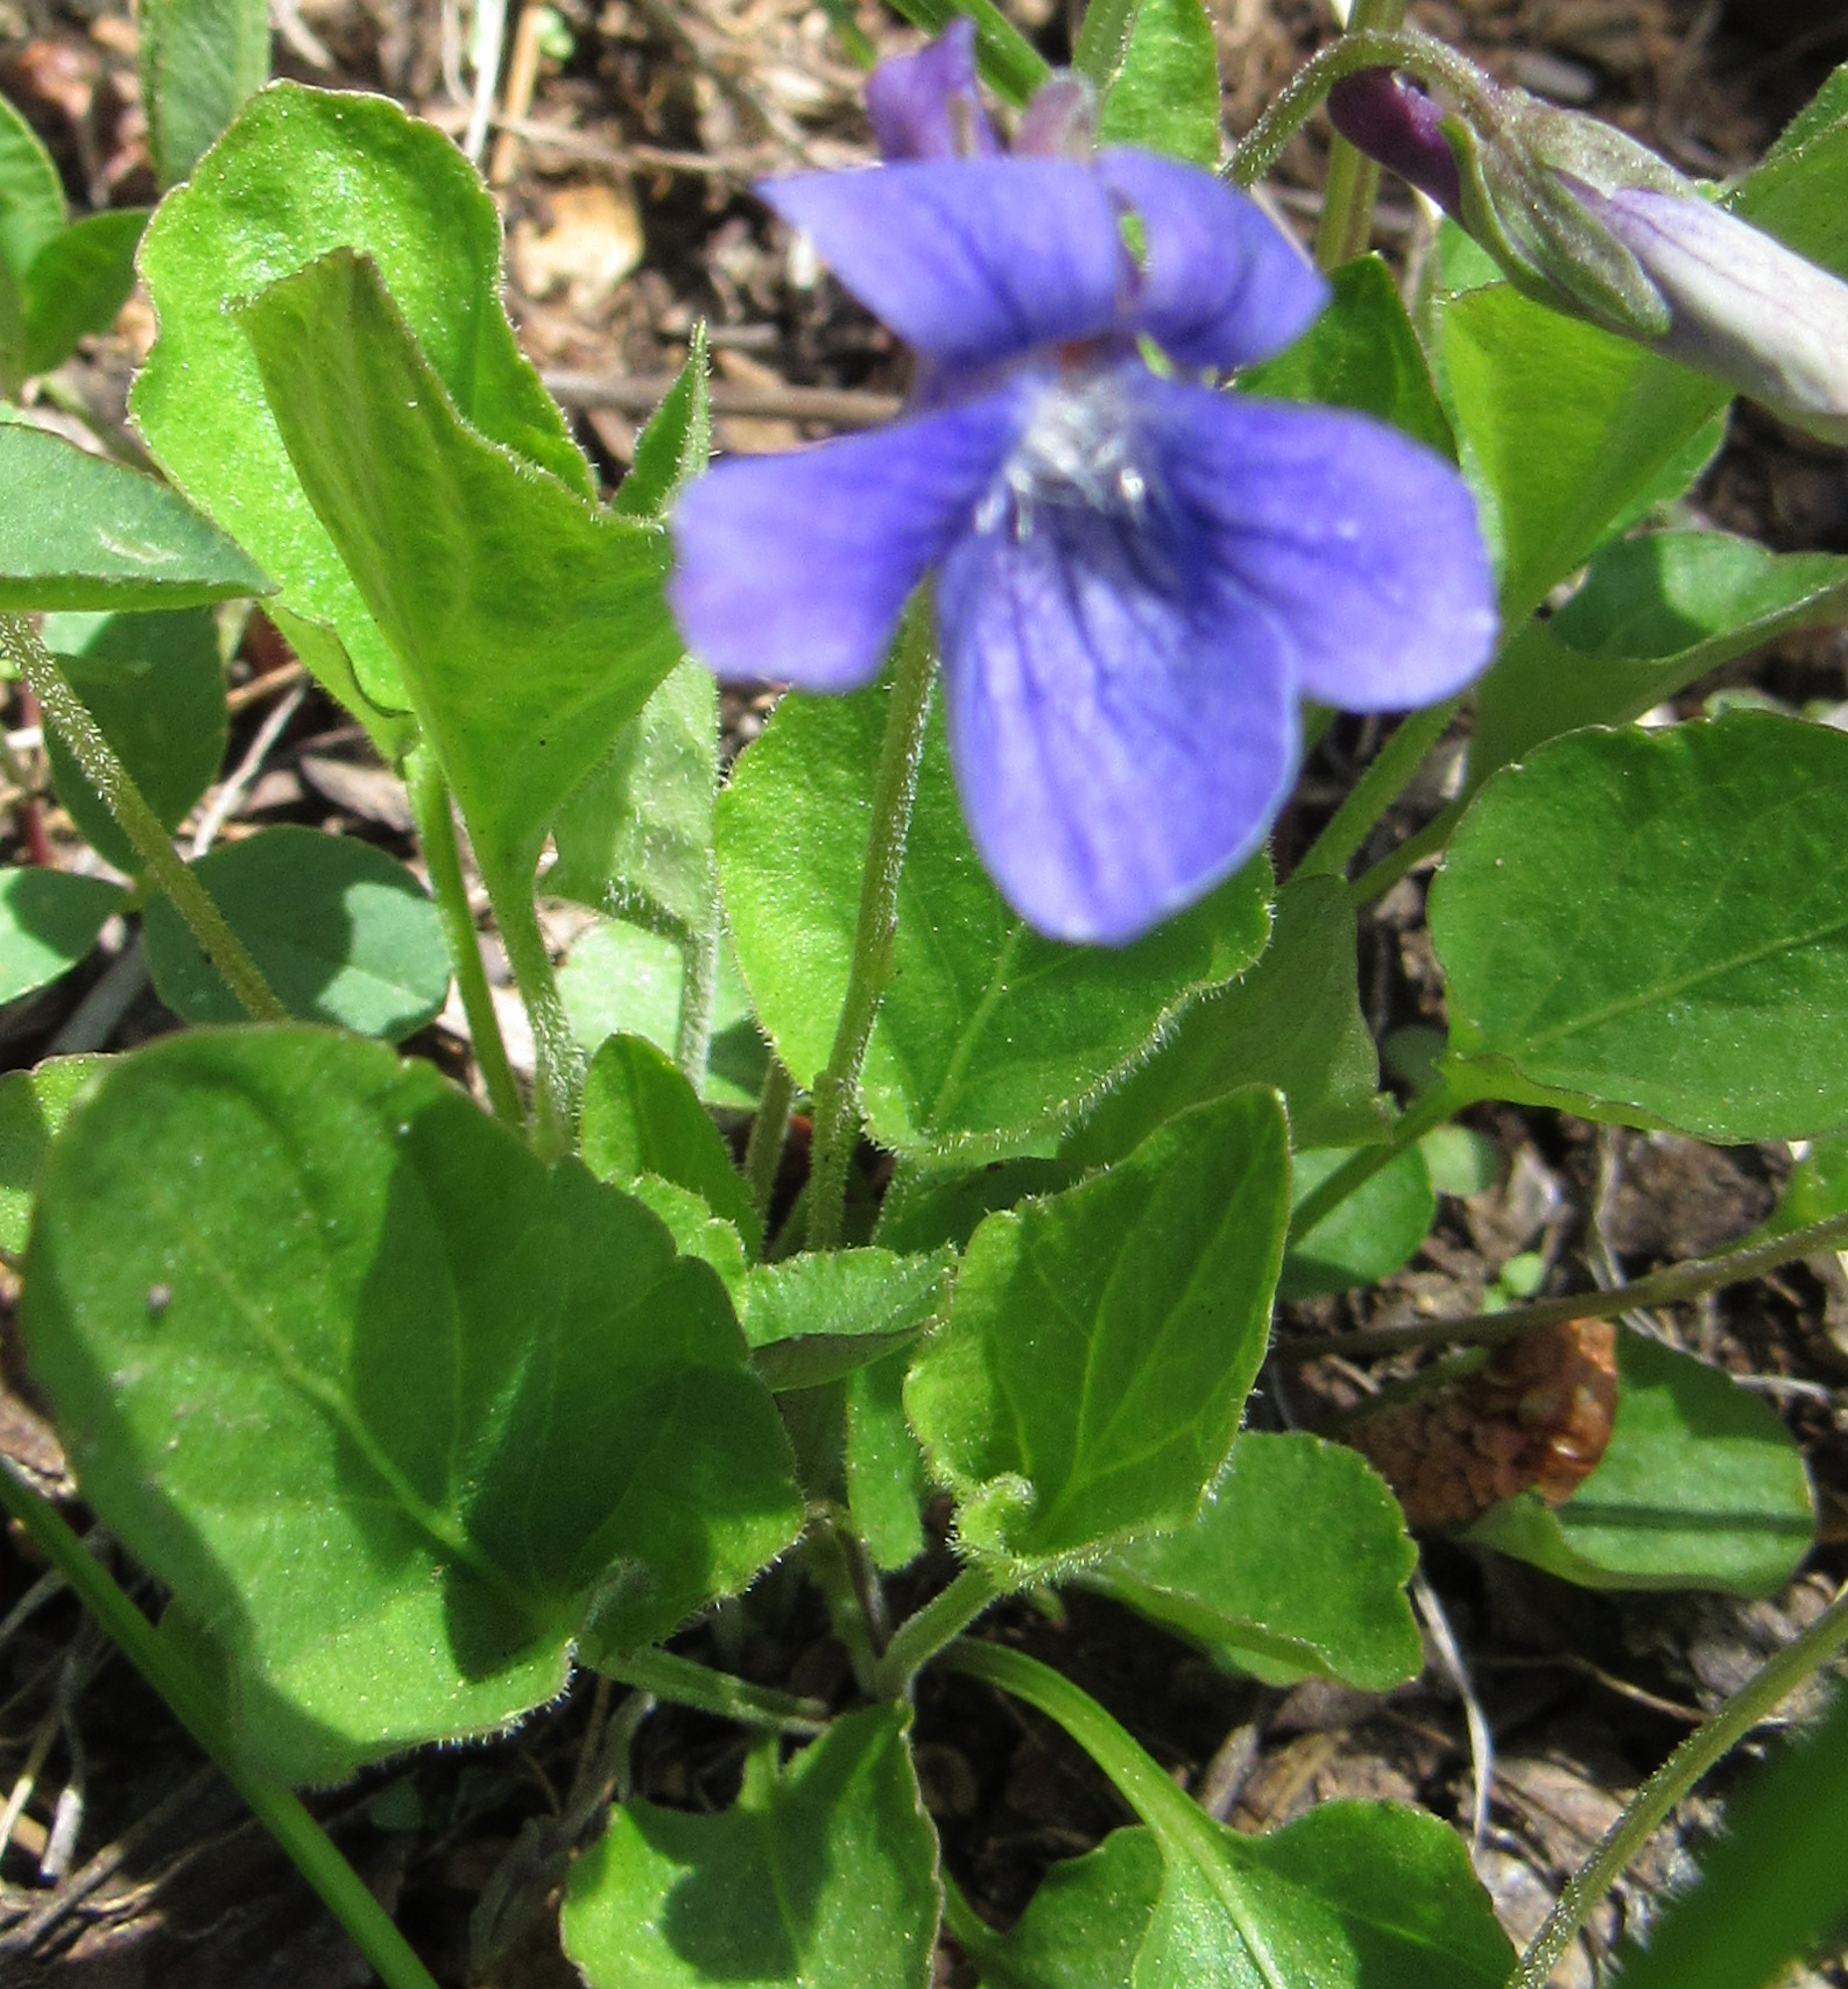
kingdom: Plantae
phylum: Tracheophyta
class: Magnoliopsida
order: Malpighiales
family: Violaceae
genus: Viola
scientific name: Viola adunca
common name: Sand violet
